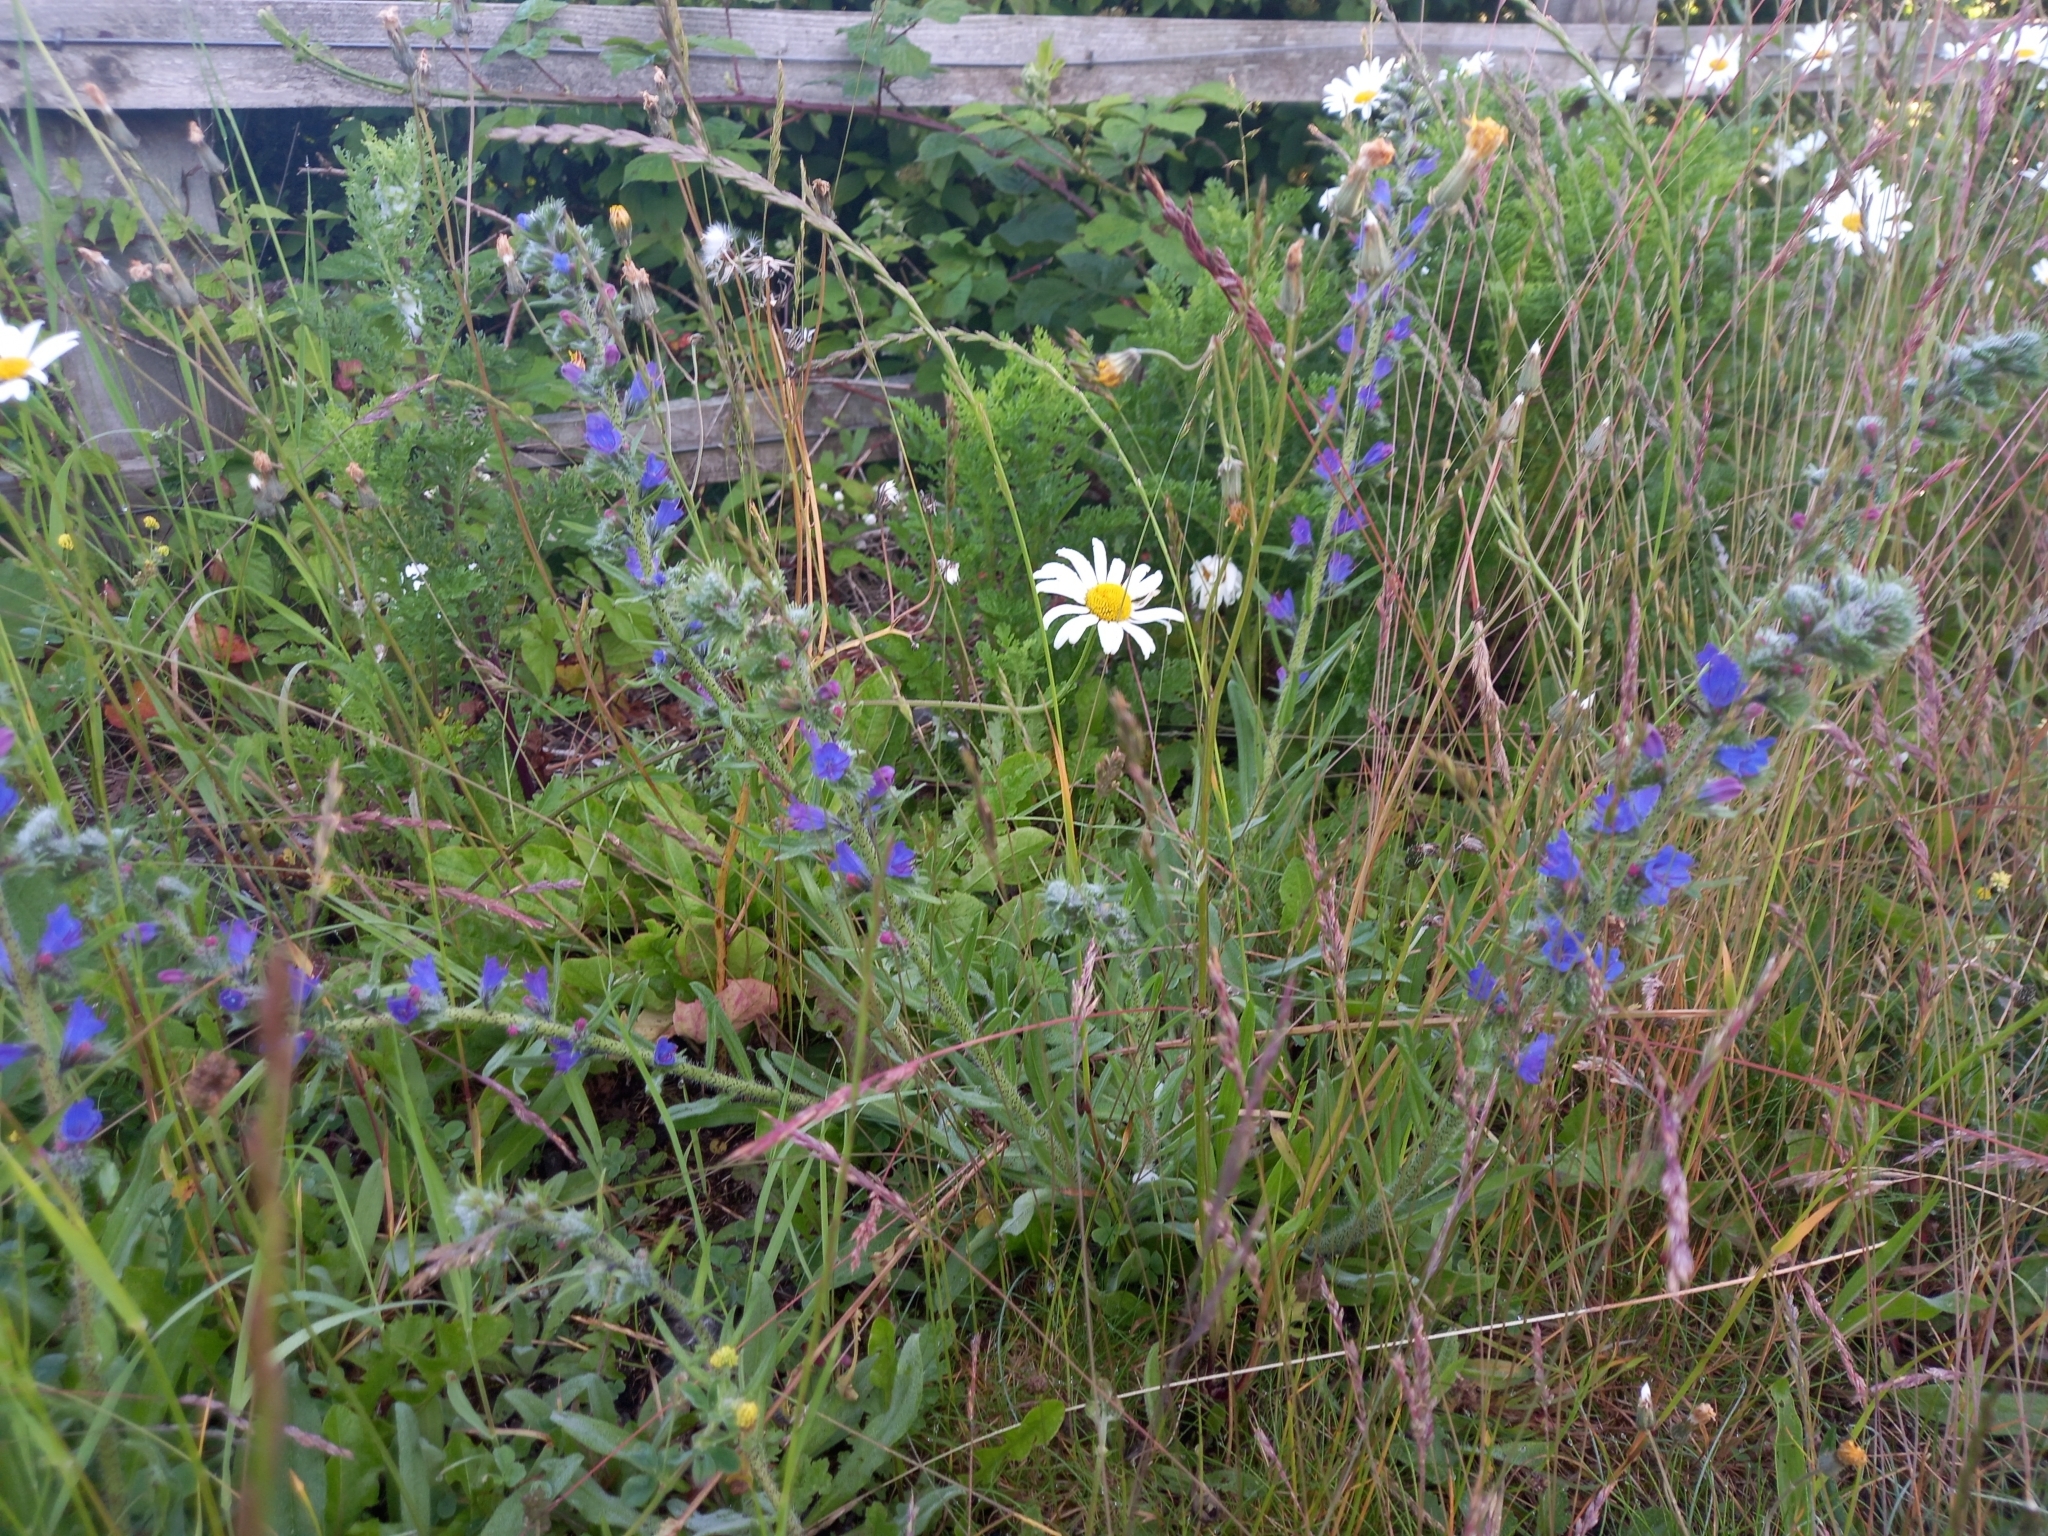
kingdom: Plantae
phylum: Tracheophyta
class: Magnoliopsida
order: Boraginales
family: Boraginaceae
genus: Echium
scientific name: Echium vulgare
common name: Common viper's bugloss
